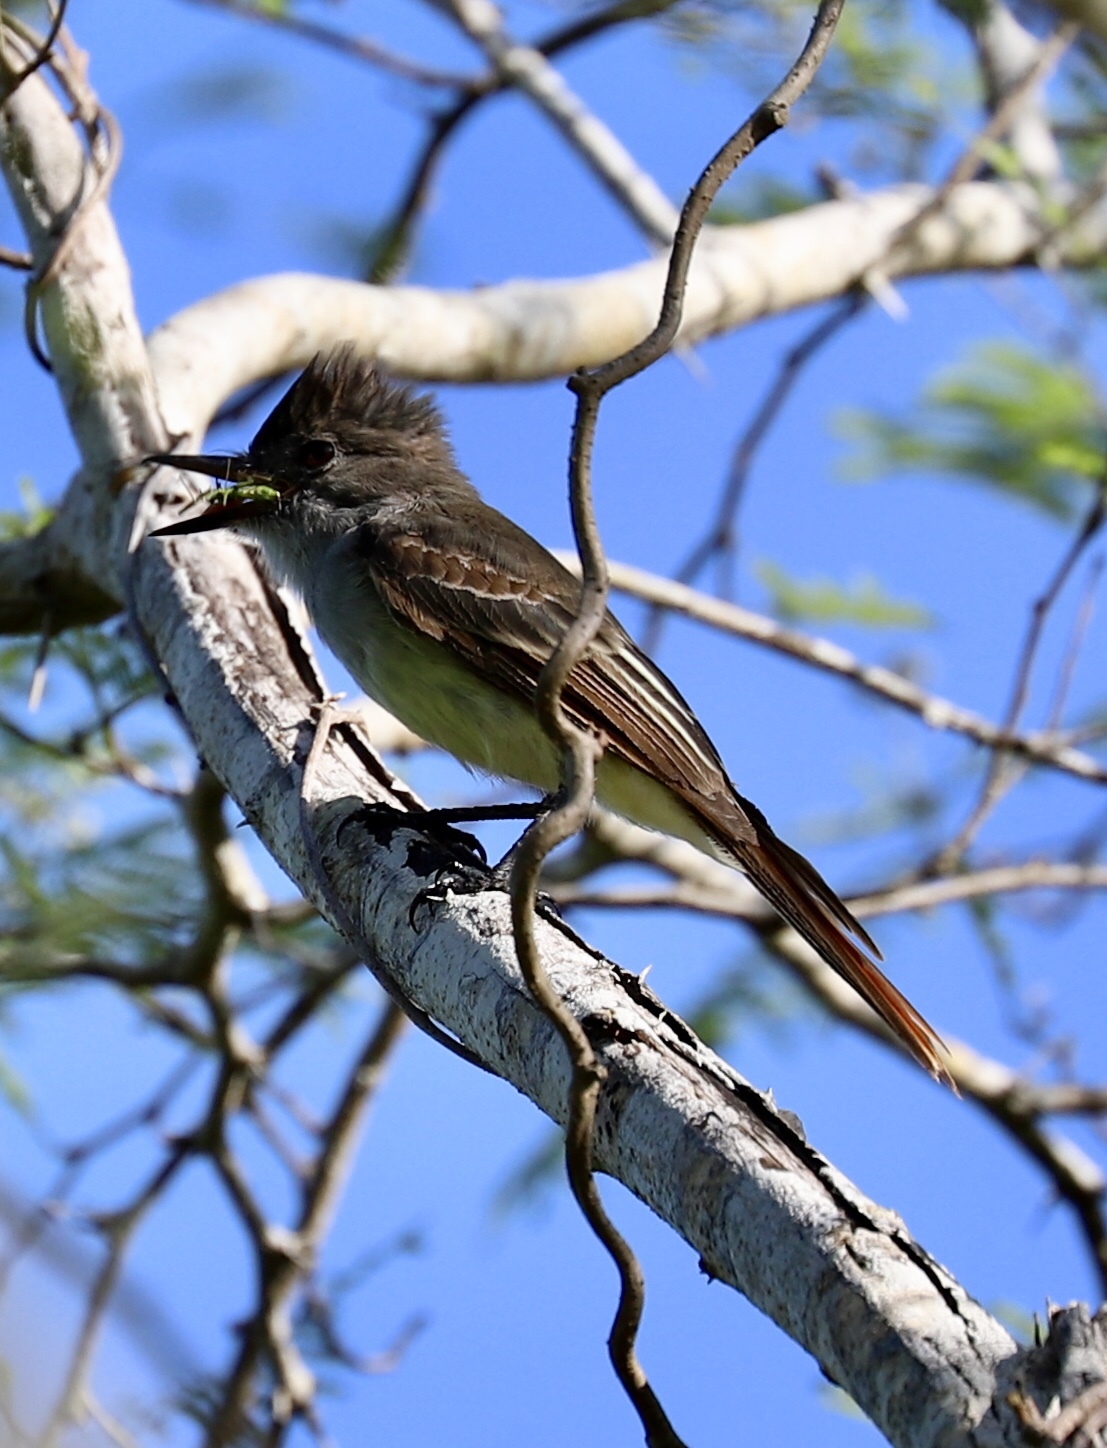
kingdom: Animalia
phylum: Chordata
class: Aves
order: Passeriformes
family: Tyrannidae
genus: Myiarchus
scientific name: Myiarchus stolidus
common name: Stolid flycatcher
